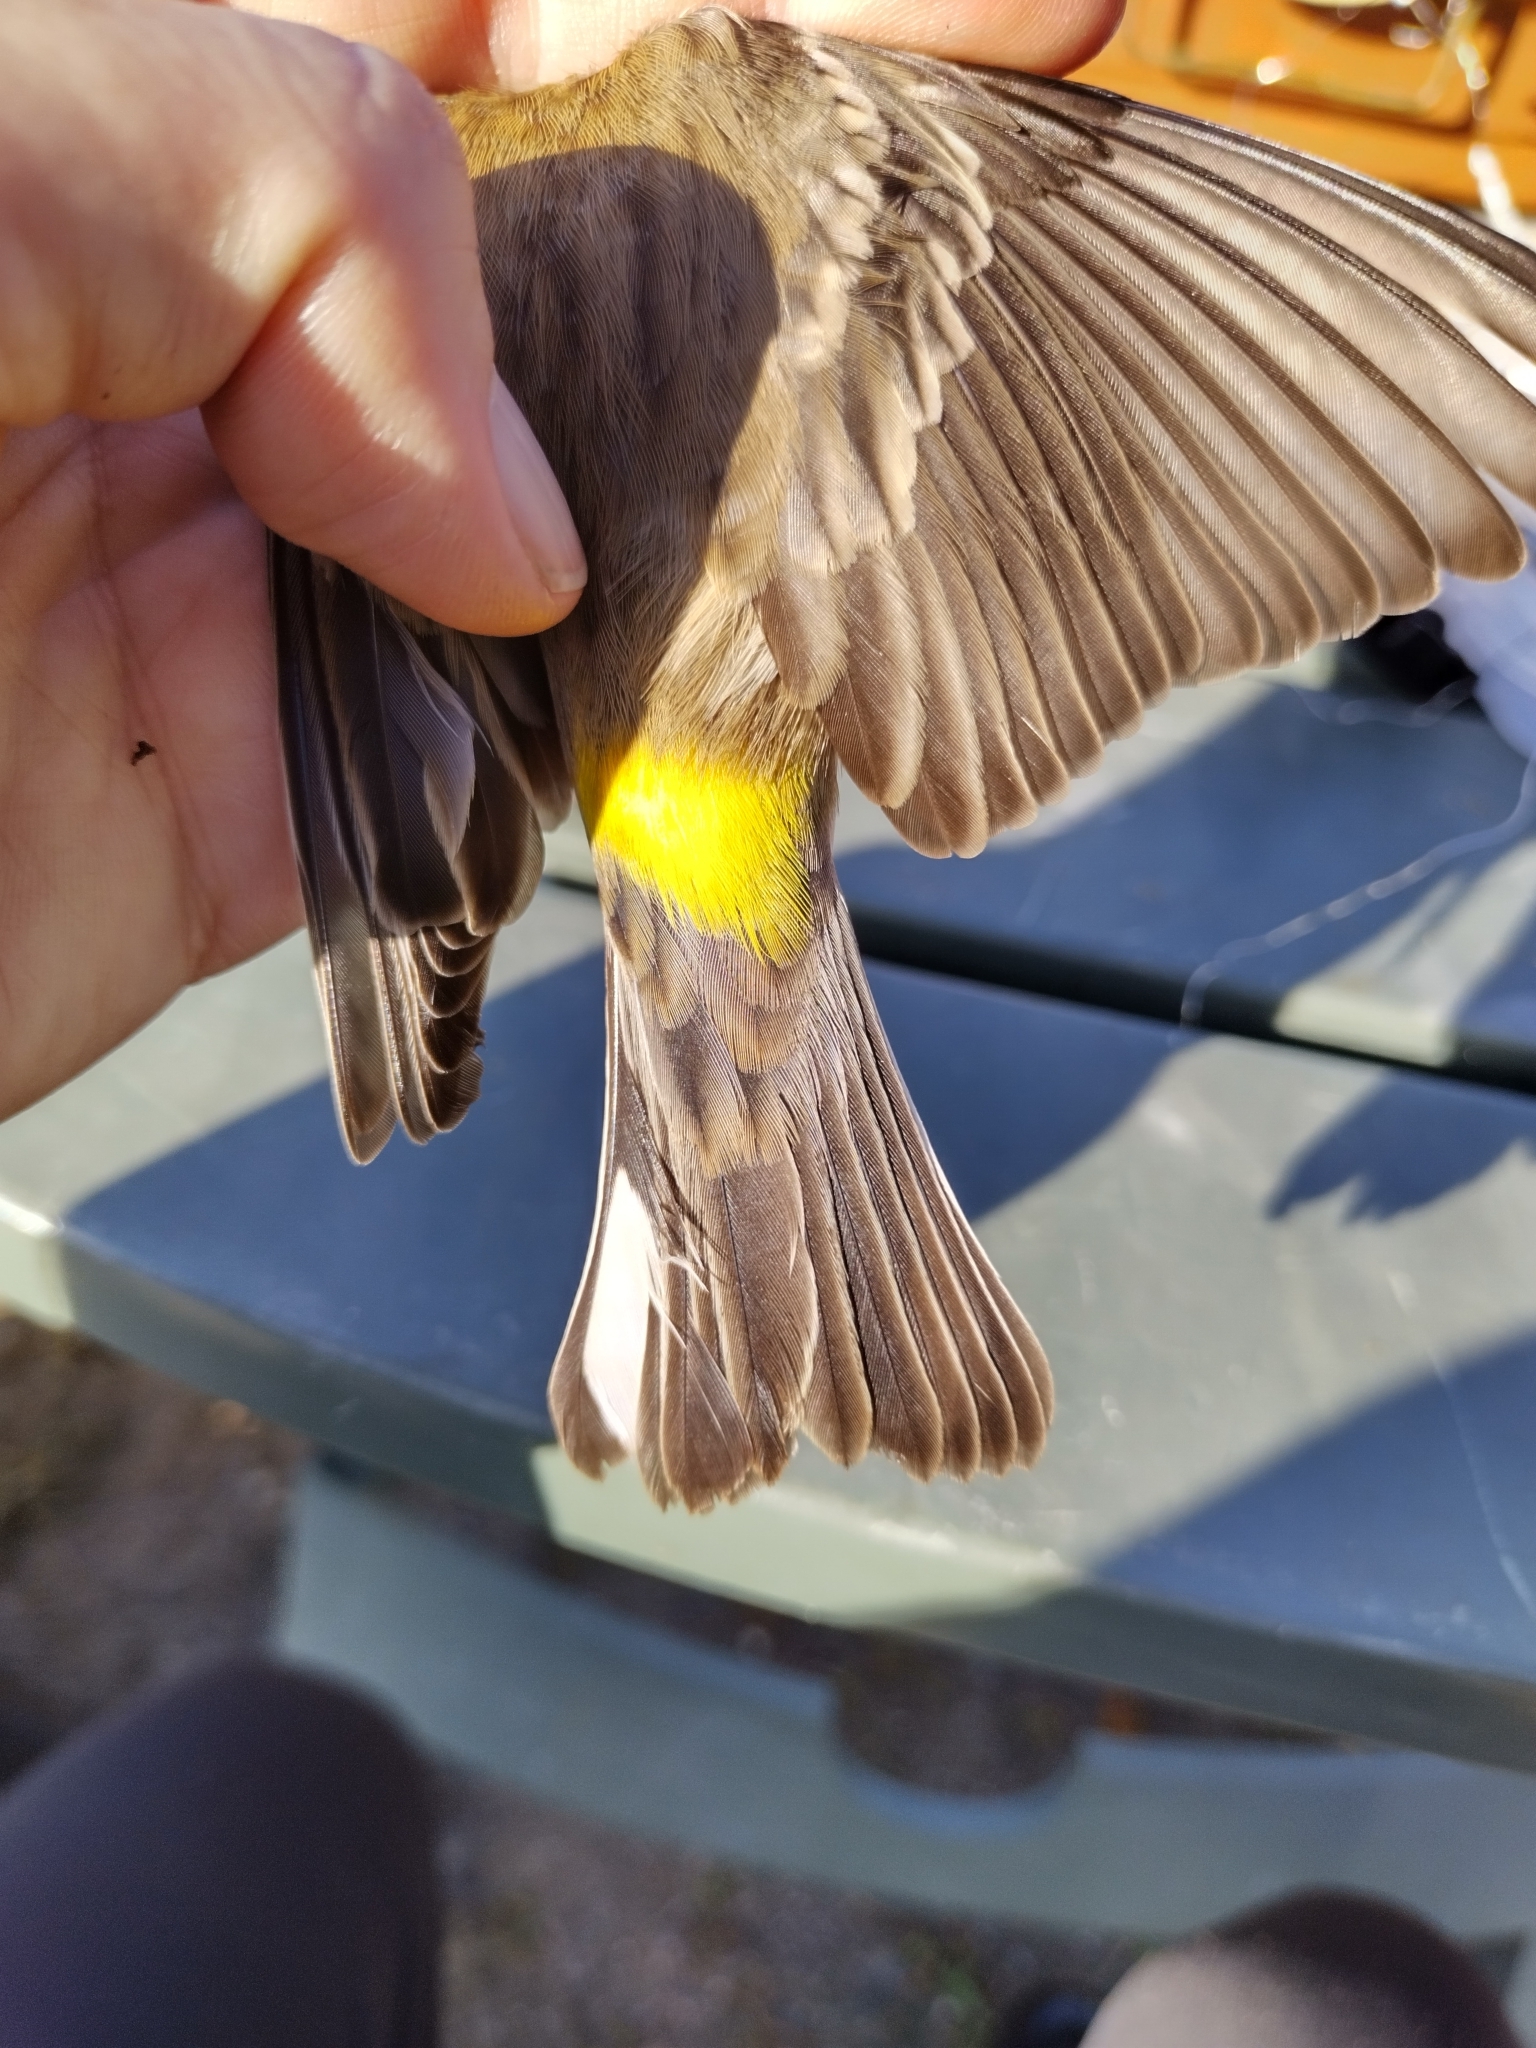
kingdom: Animalia
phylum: Chordata
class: Aves
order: Passeriformes
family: Parulidae
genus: Setophaga
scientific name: Setophaga coronata
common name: Myrtle warbler
